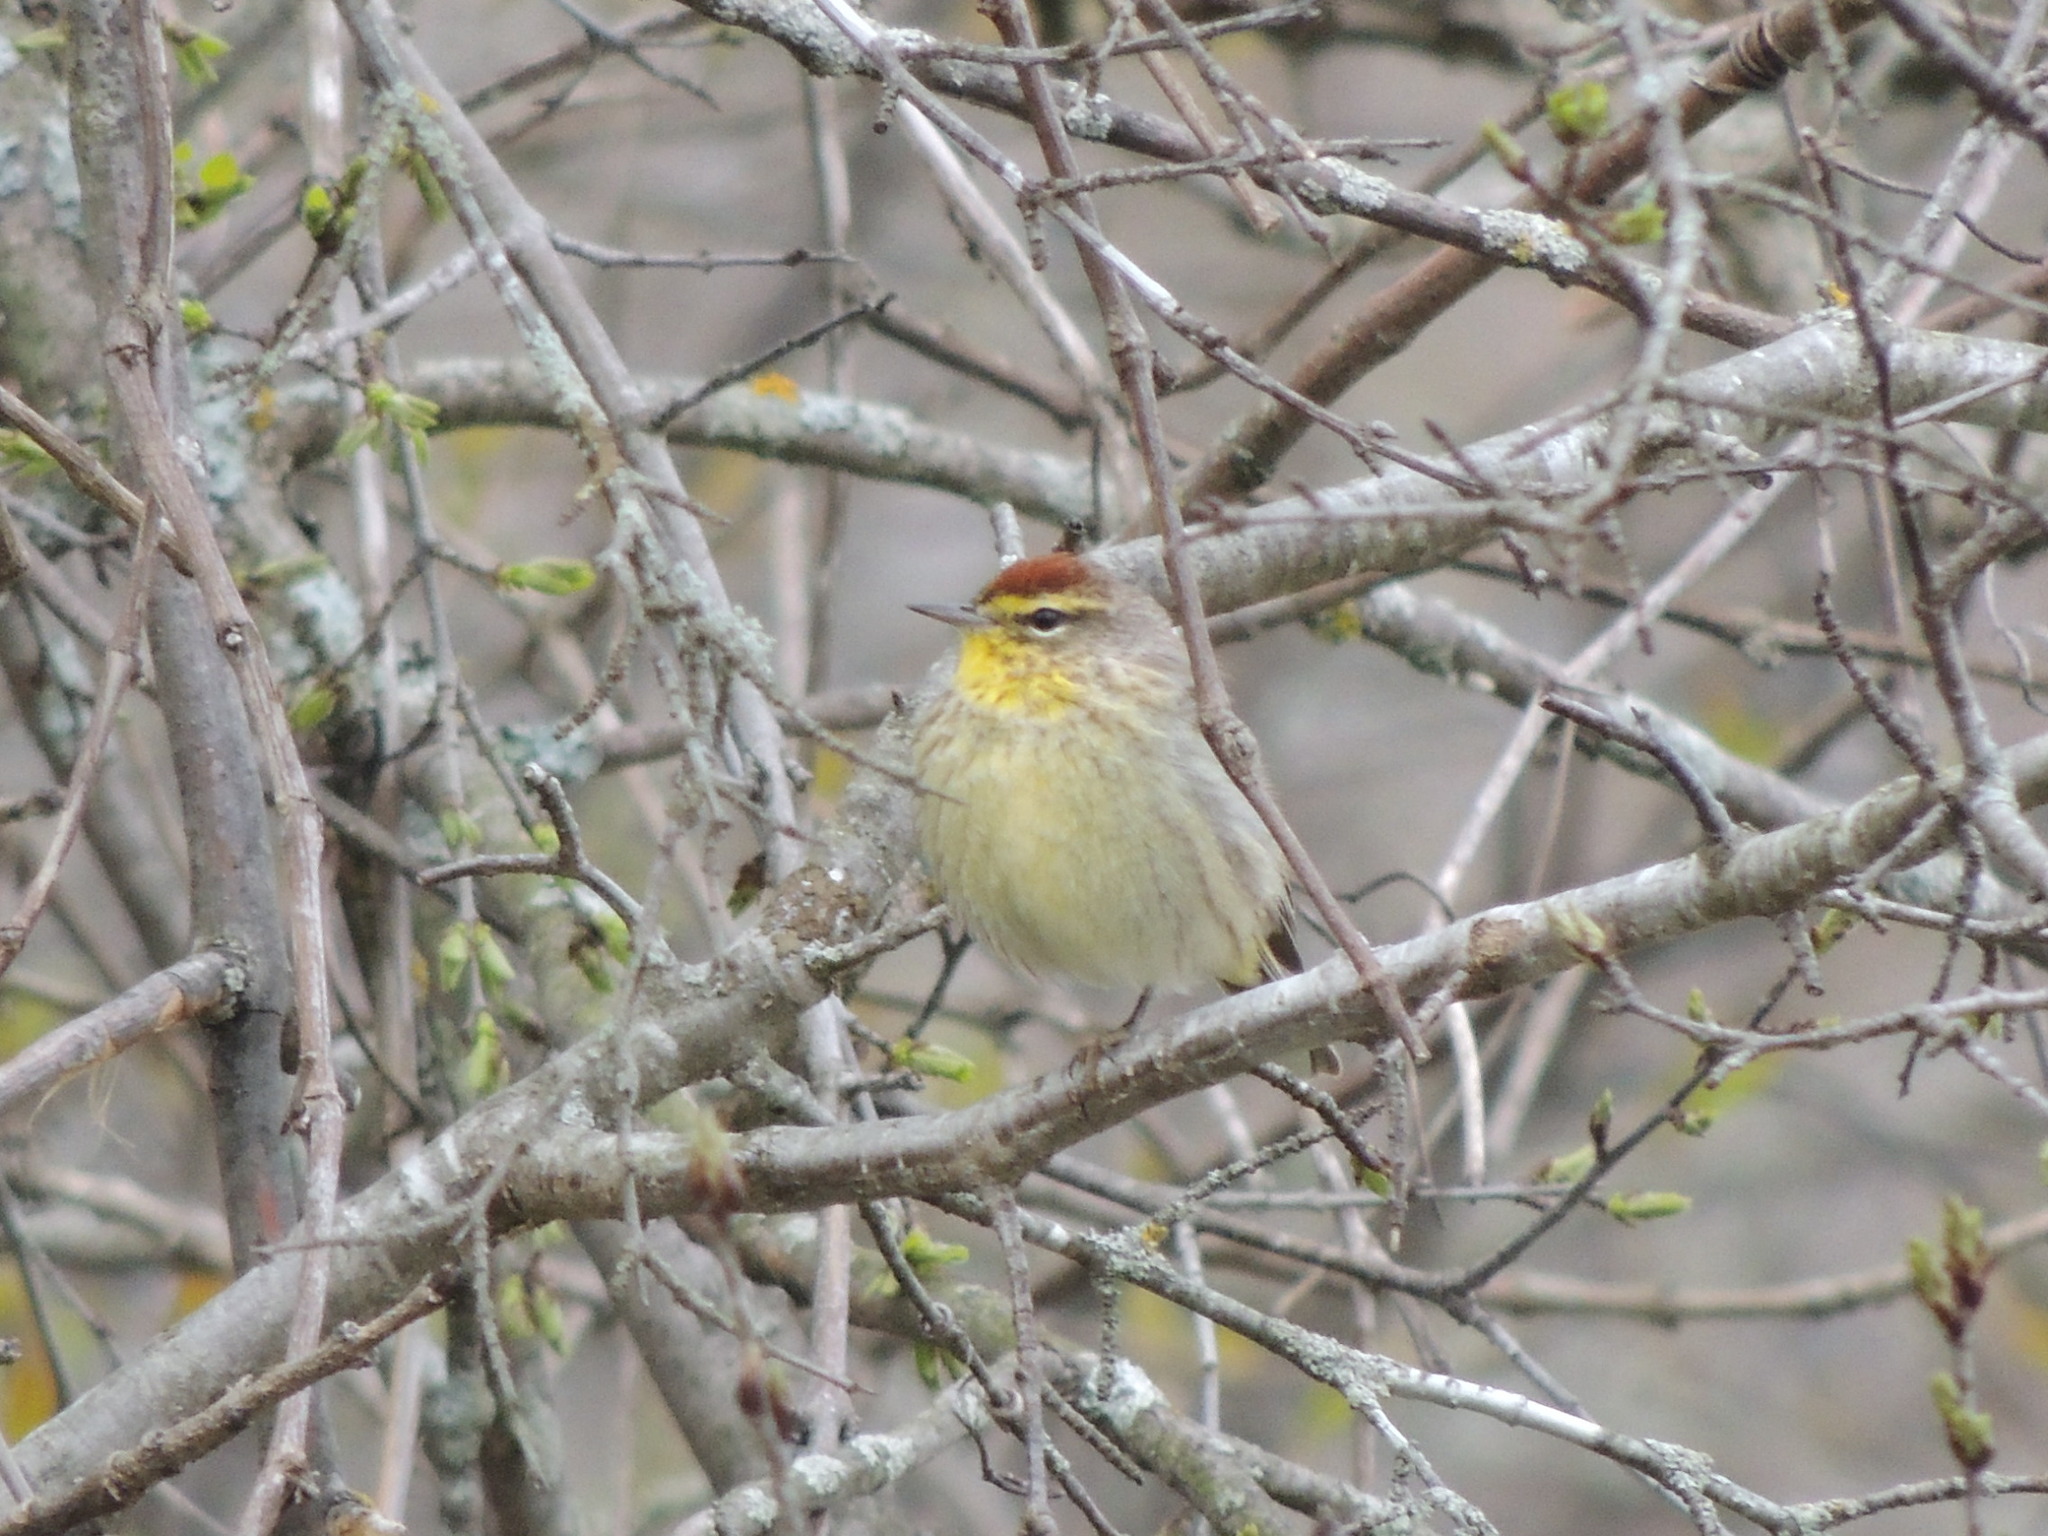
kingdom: Animalia
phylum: Chordata
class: Aves
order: Passeriformes
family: Parulidae
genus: Setophaga
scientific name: Setophaga palmarum
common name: Palm warbler
